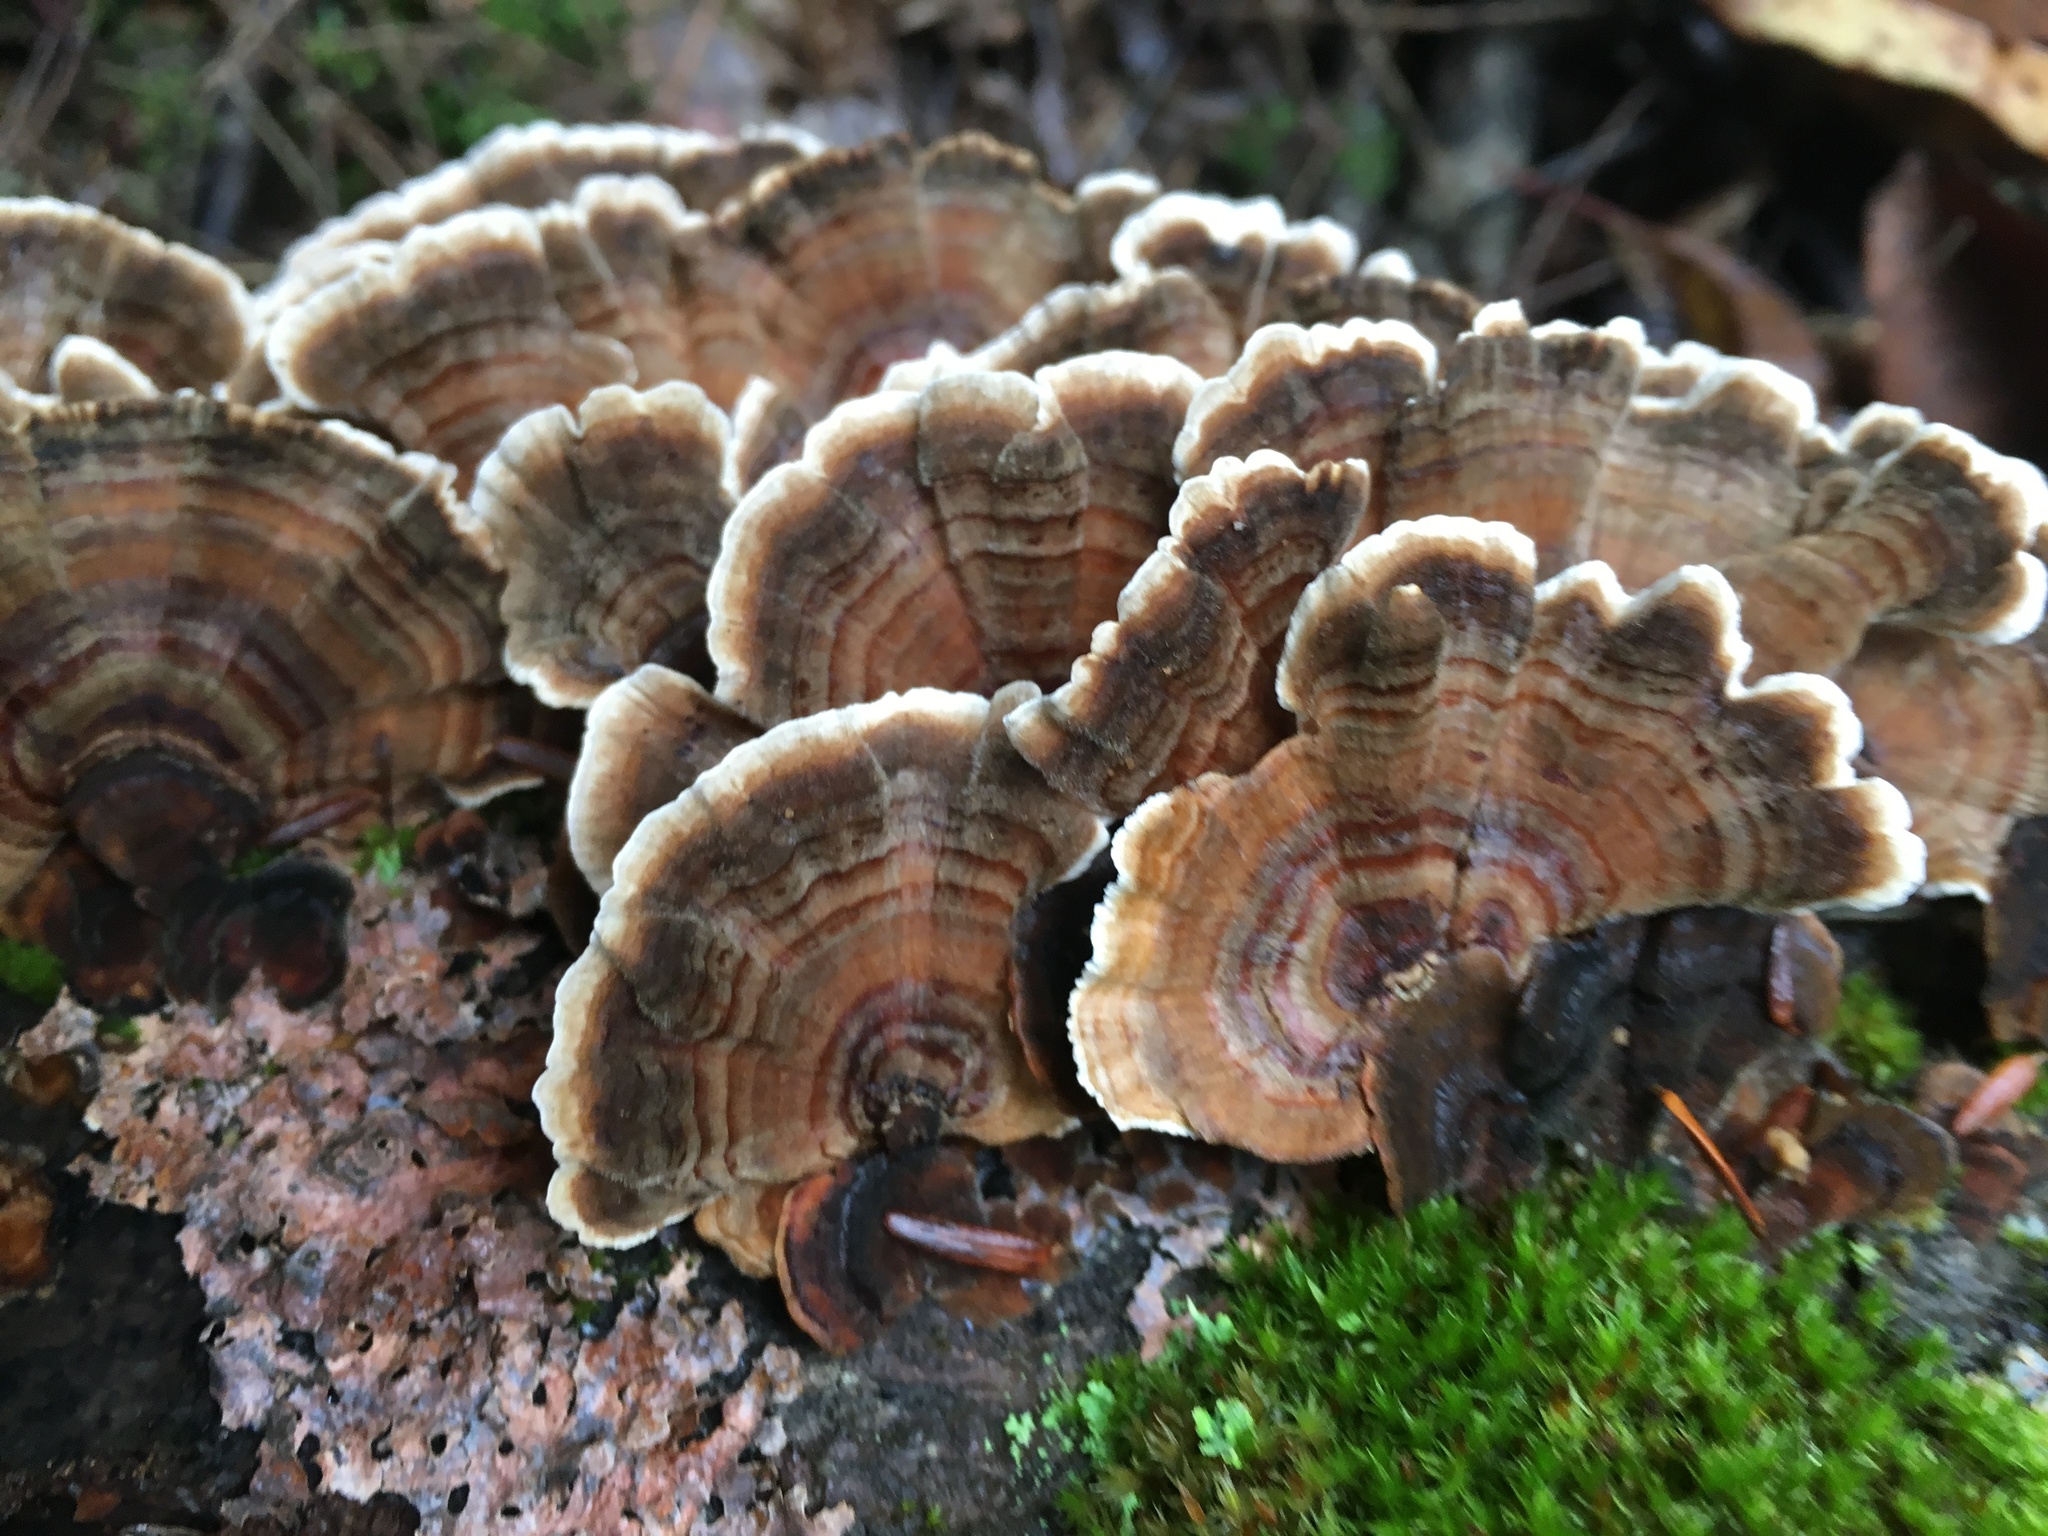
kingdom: Fungi
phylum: Basidiomycota
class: Agaricomycetes
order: Polyporales
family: Polyporaceae
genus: Trametes
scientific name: Trametes versicolor
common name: Turkeytail
